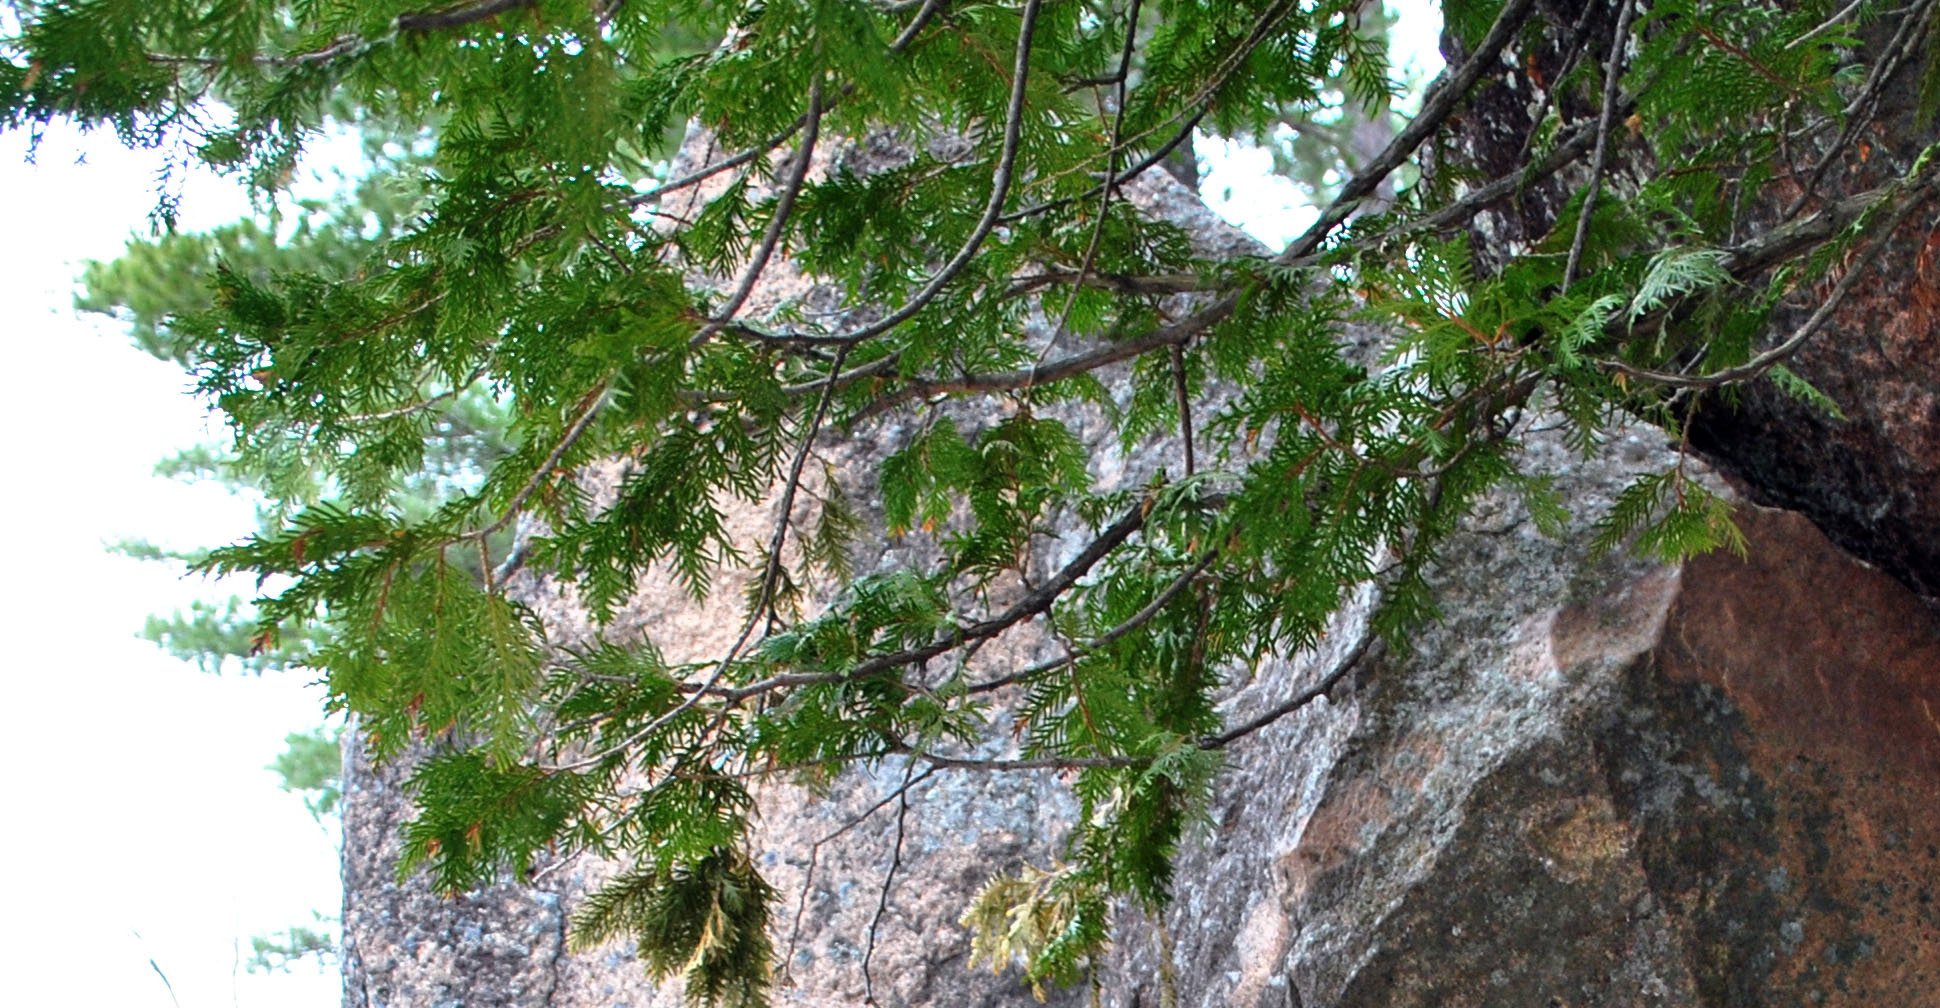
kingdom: Plantae
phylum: Tracheophyta
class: Pinopsida
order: Pinales
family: Cupressaceae
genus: Thuja
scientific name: Thuja occidentalis
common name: Northern white-cedar
